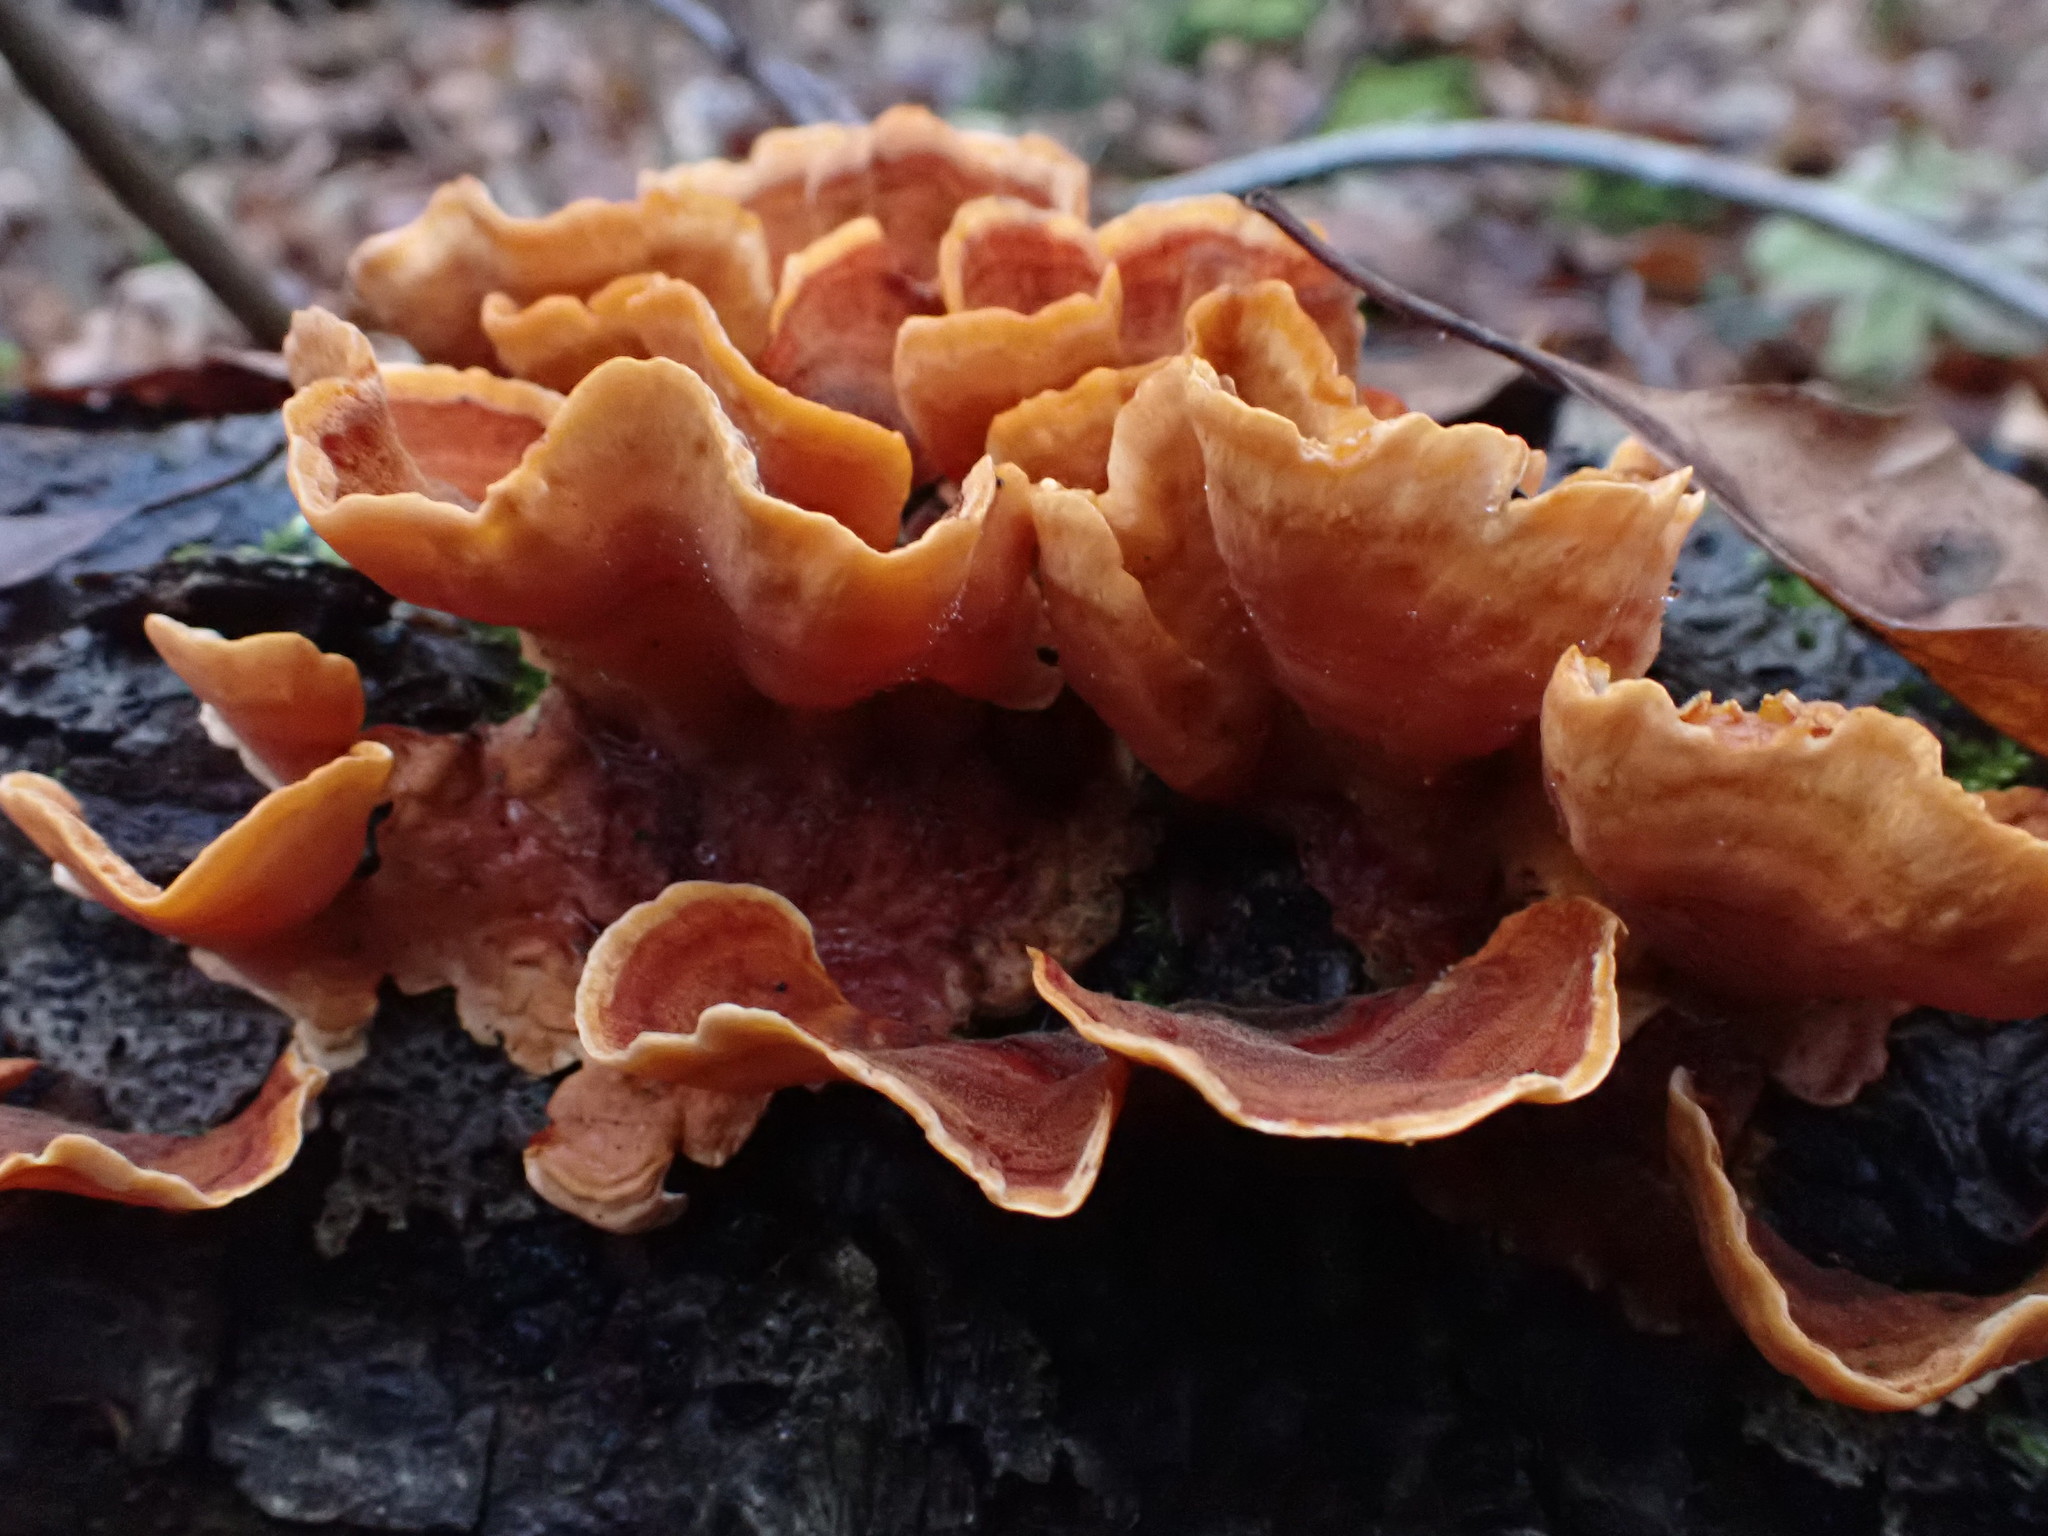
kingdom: Fungi
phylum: Basidiomycota
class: Agaricomycetes
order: Russulales
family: Stereaceae
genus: Stereum
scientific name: Stereum subtomentosum
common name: Yellowing curtain crust
